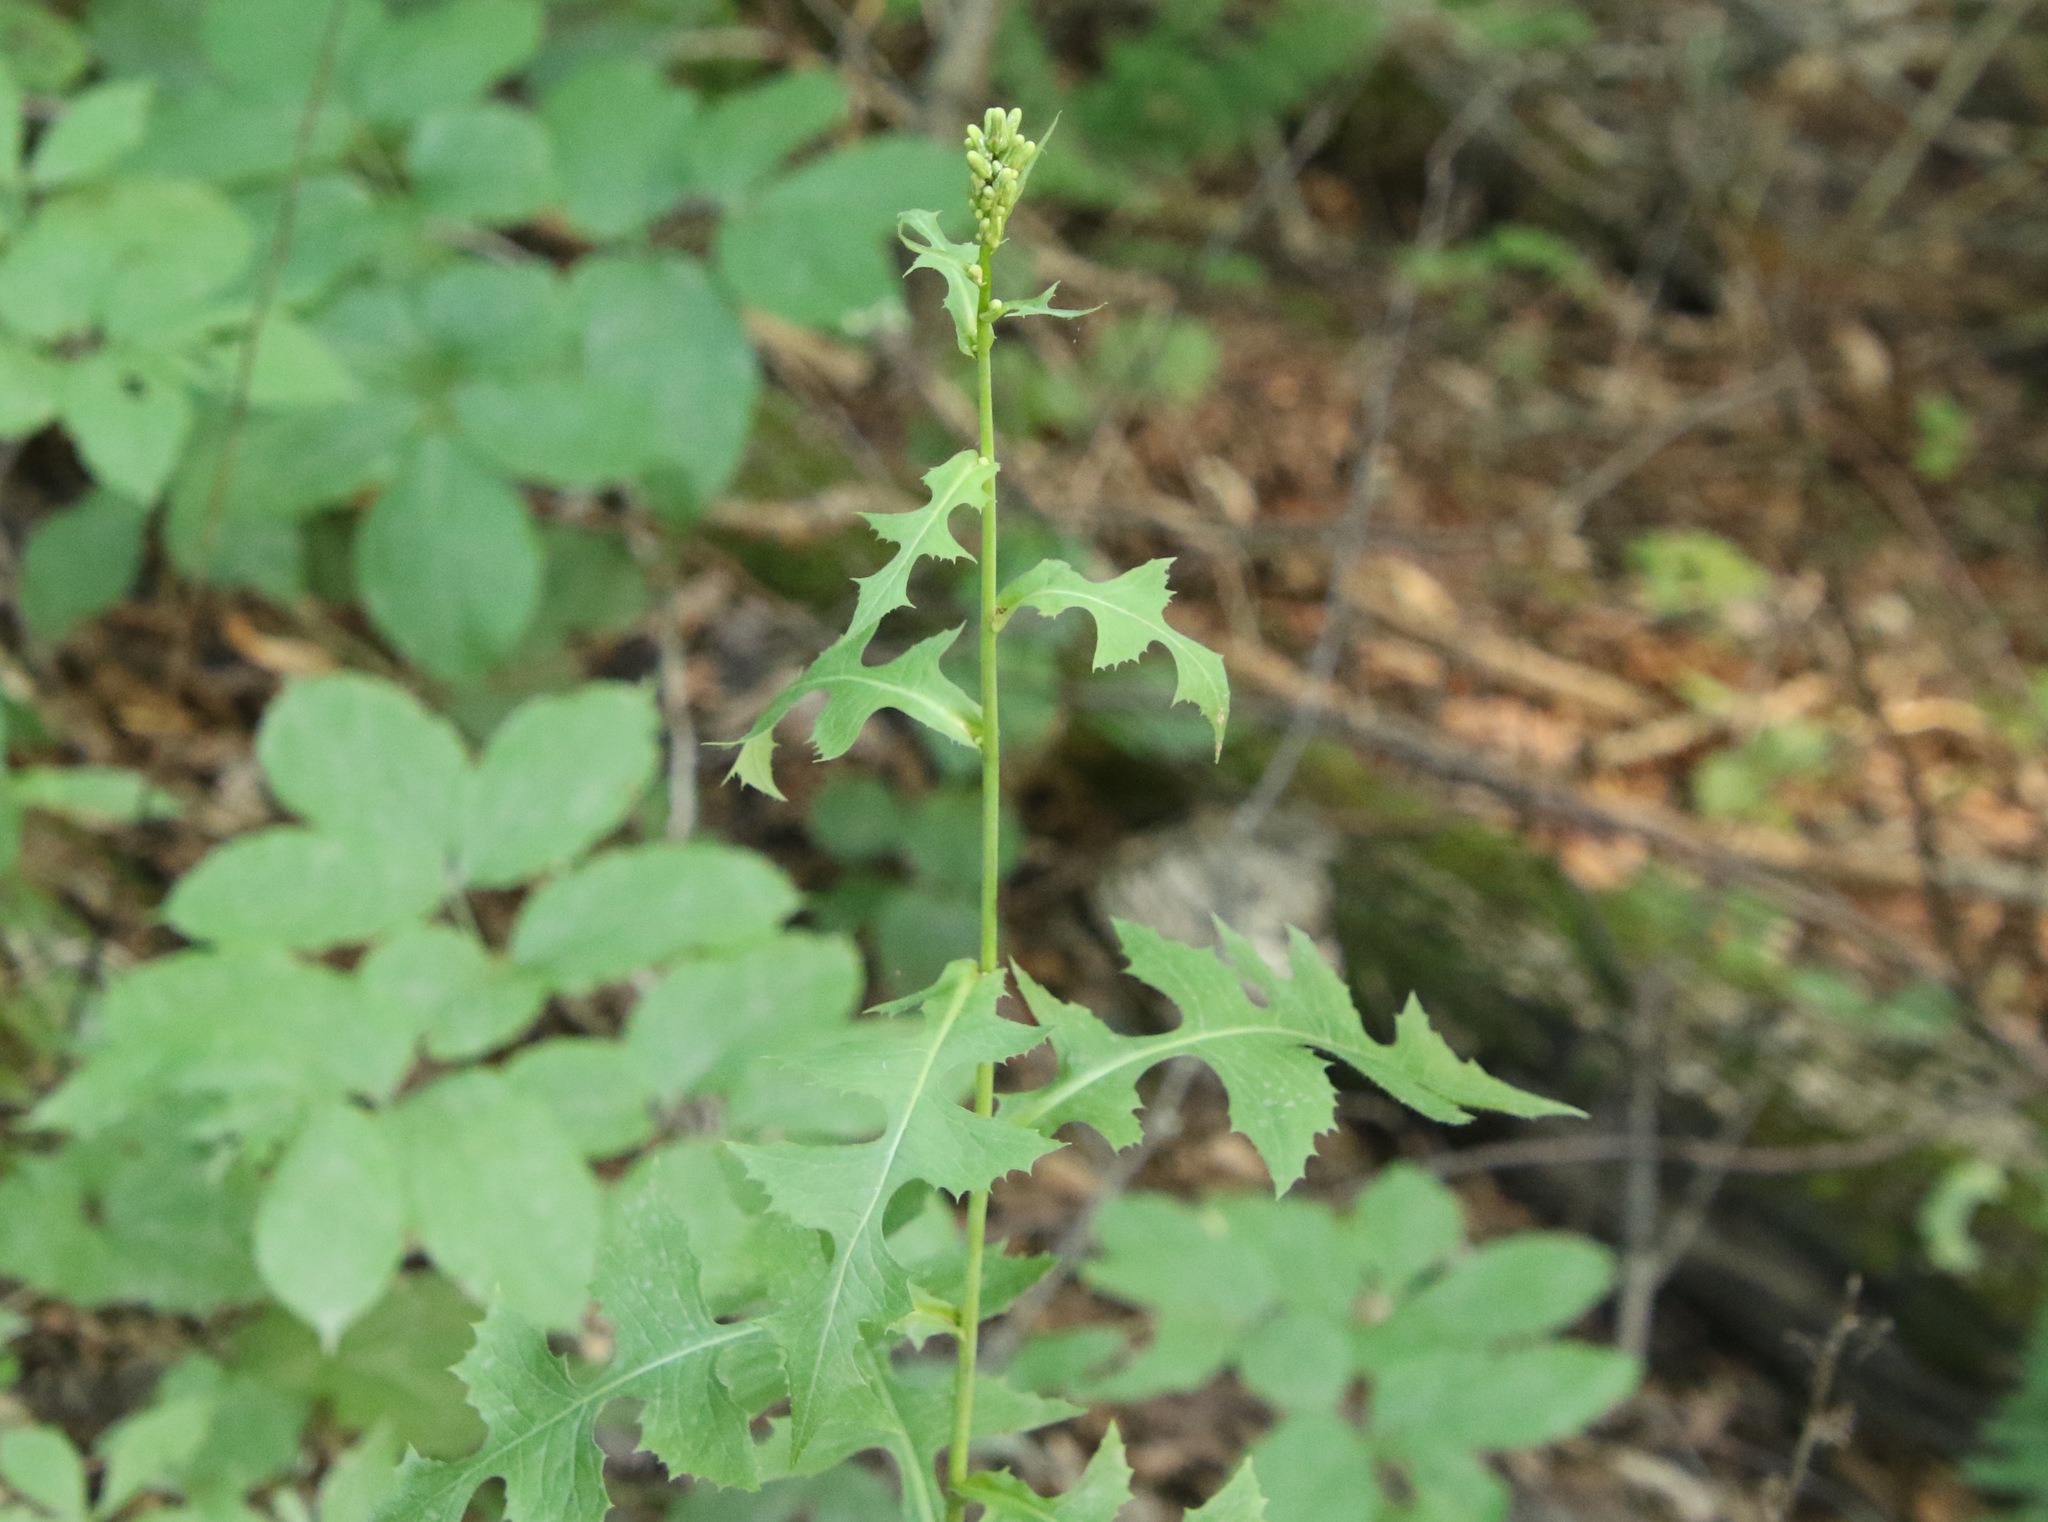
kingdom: Plantae
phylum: Tracheophyta
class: Magnoliopsida
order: Asterales
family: Asteraceae
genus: Lactuca
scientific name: Lactuca biennis
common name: Blue wood lettuce
